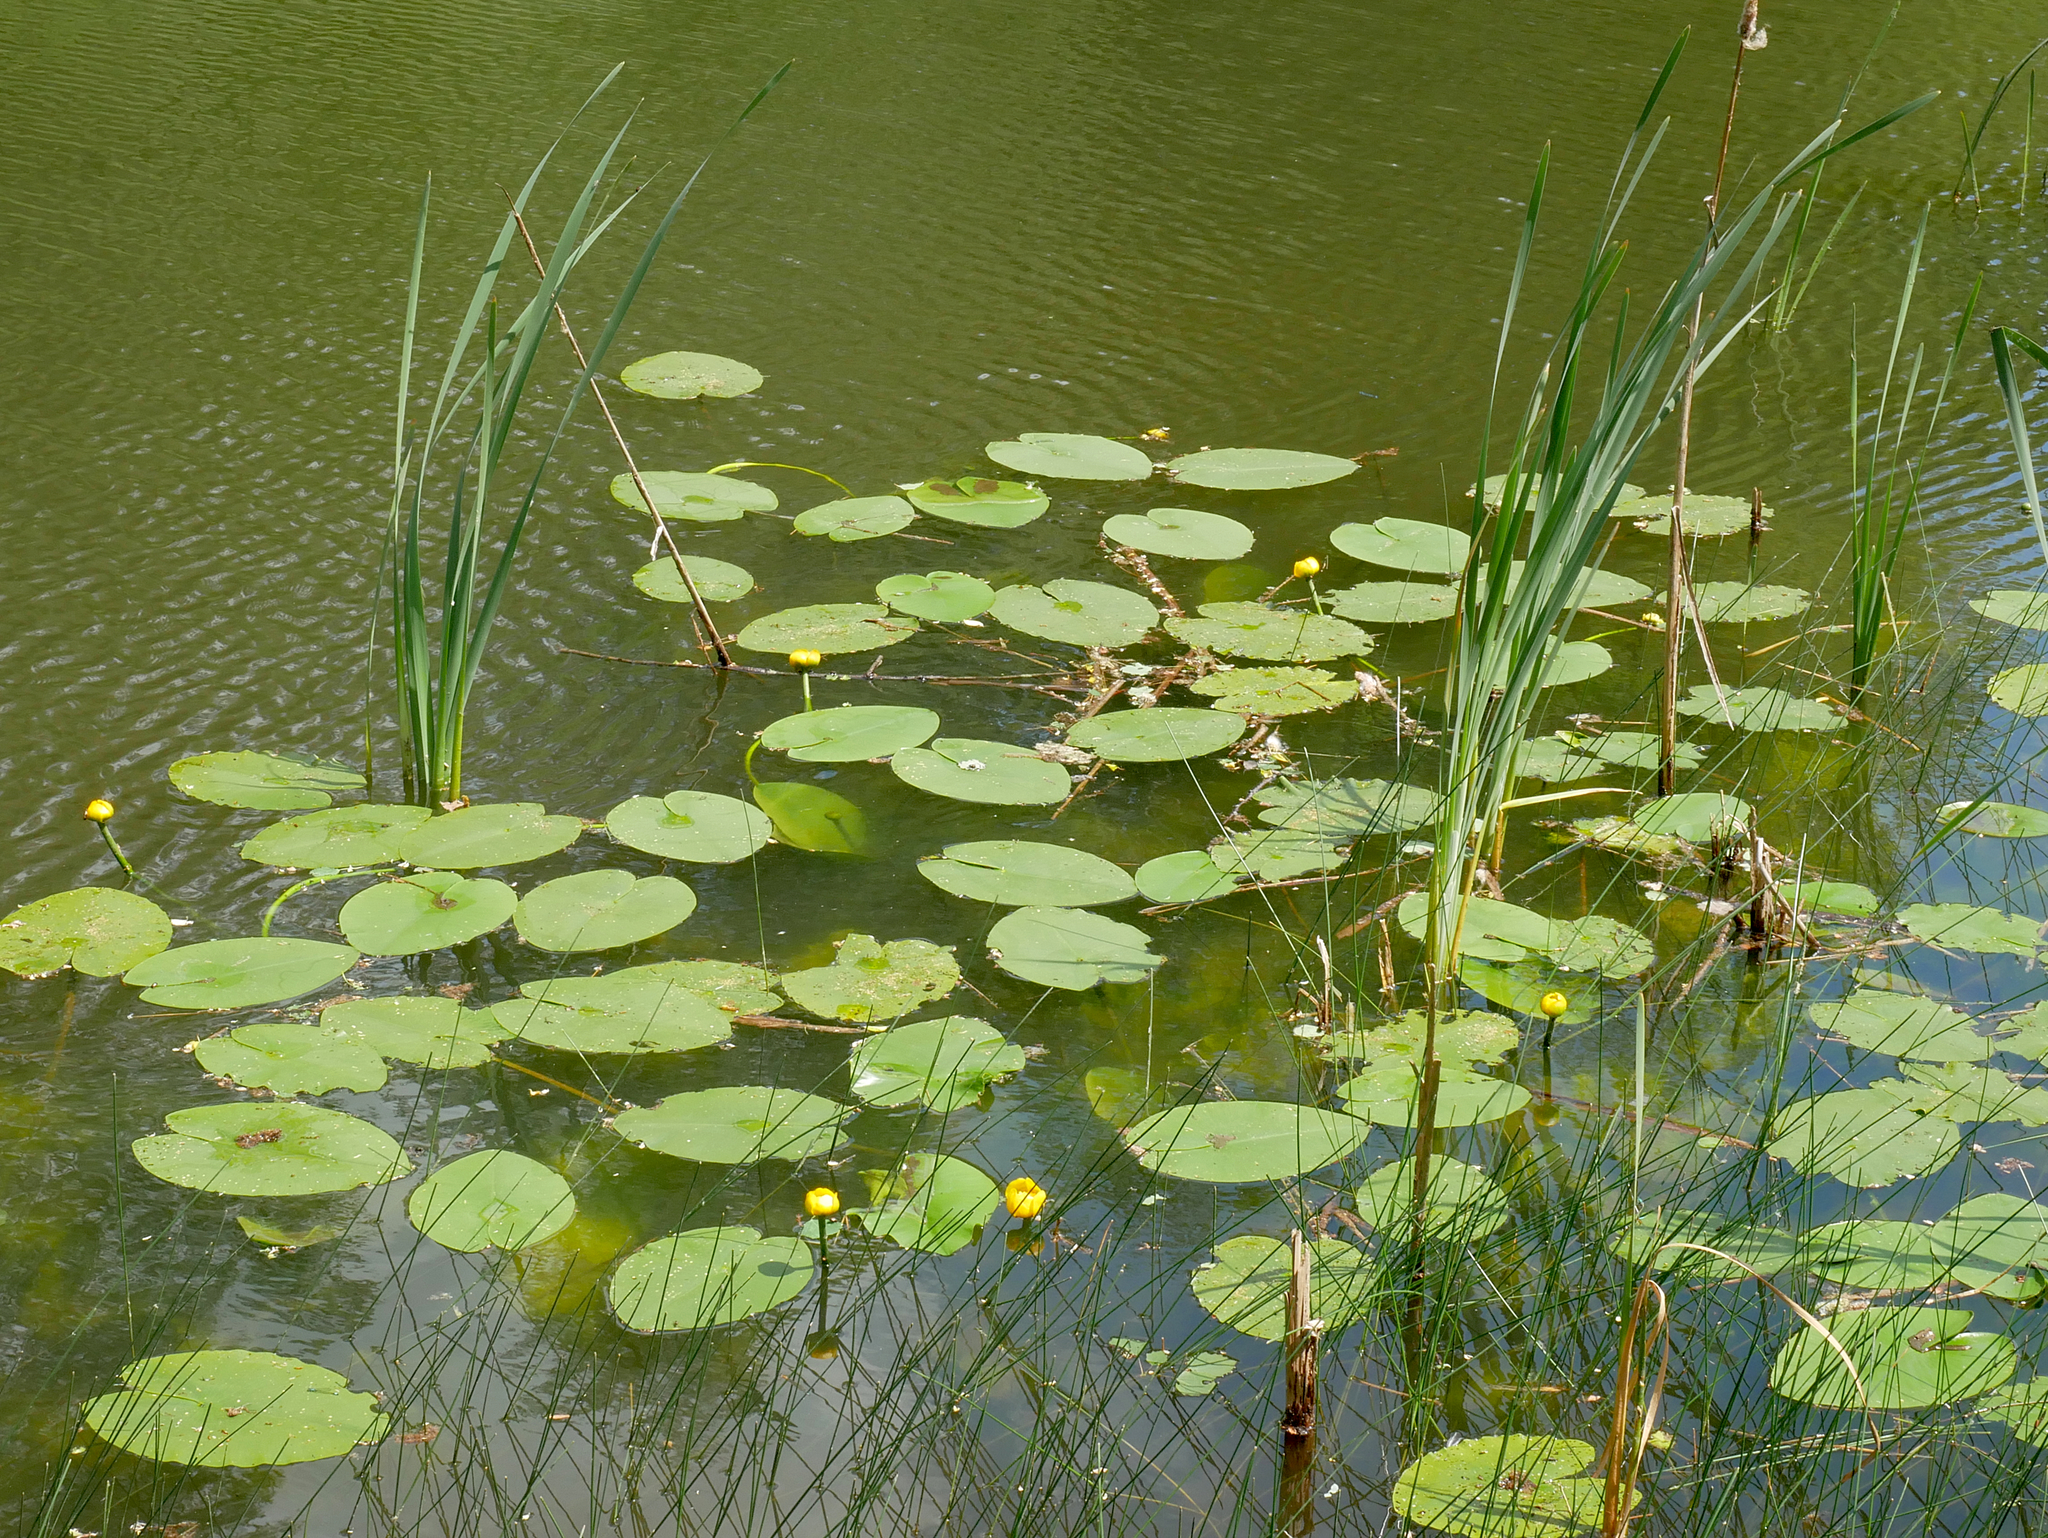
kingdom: Plantae
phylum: Tracheophyta
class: Magnoliopsida
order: Nymphaeales
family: Nymphaeaceae
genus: Nuphar
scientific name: Nuphar lutea
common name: Yellow water-lily
